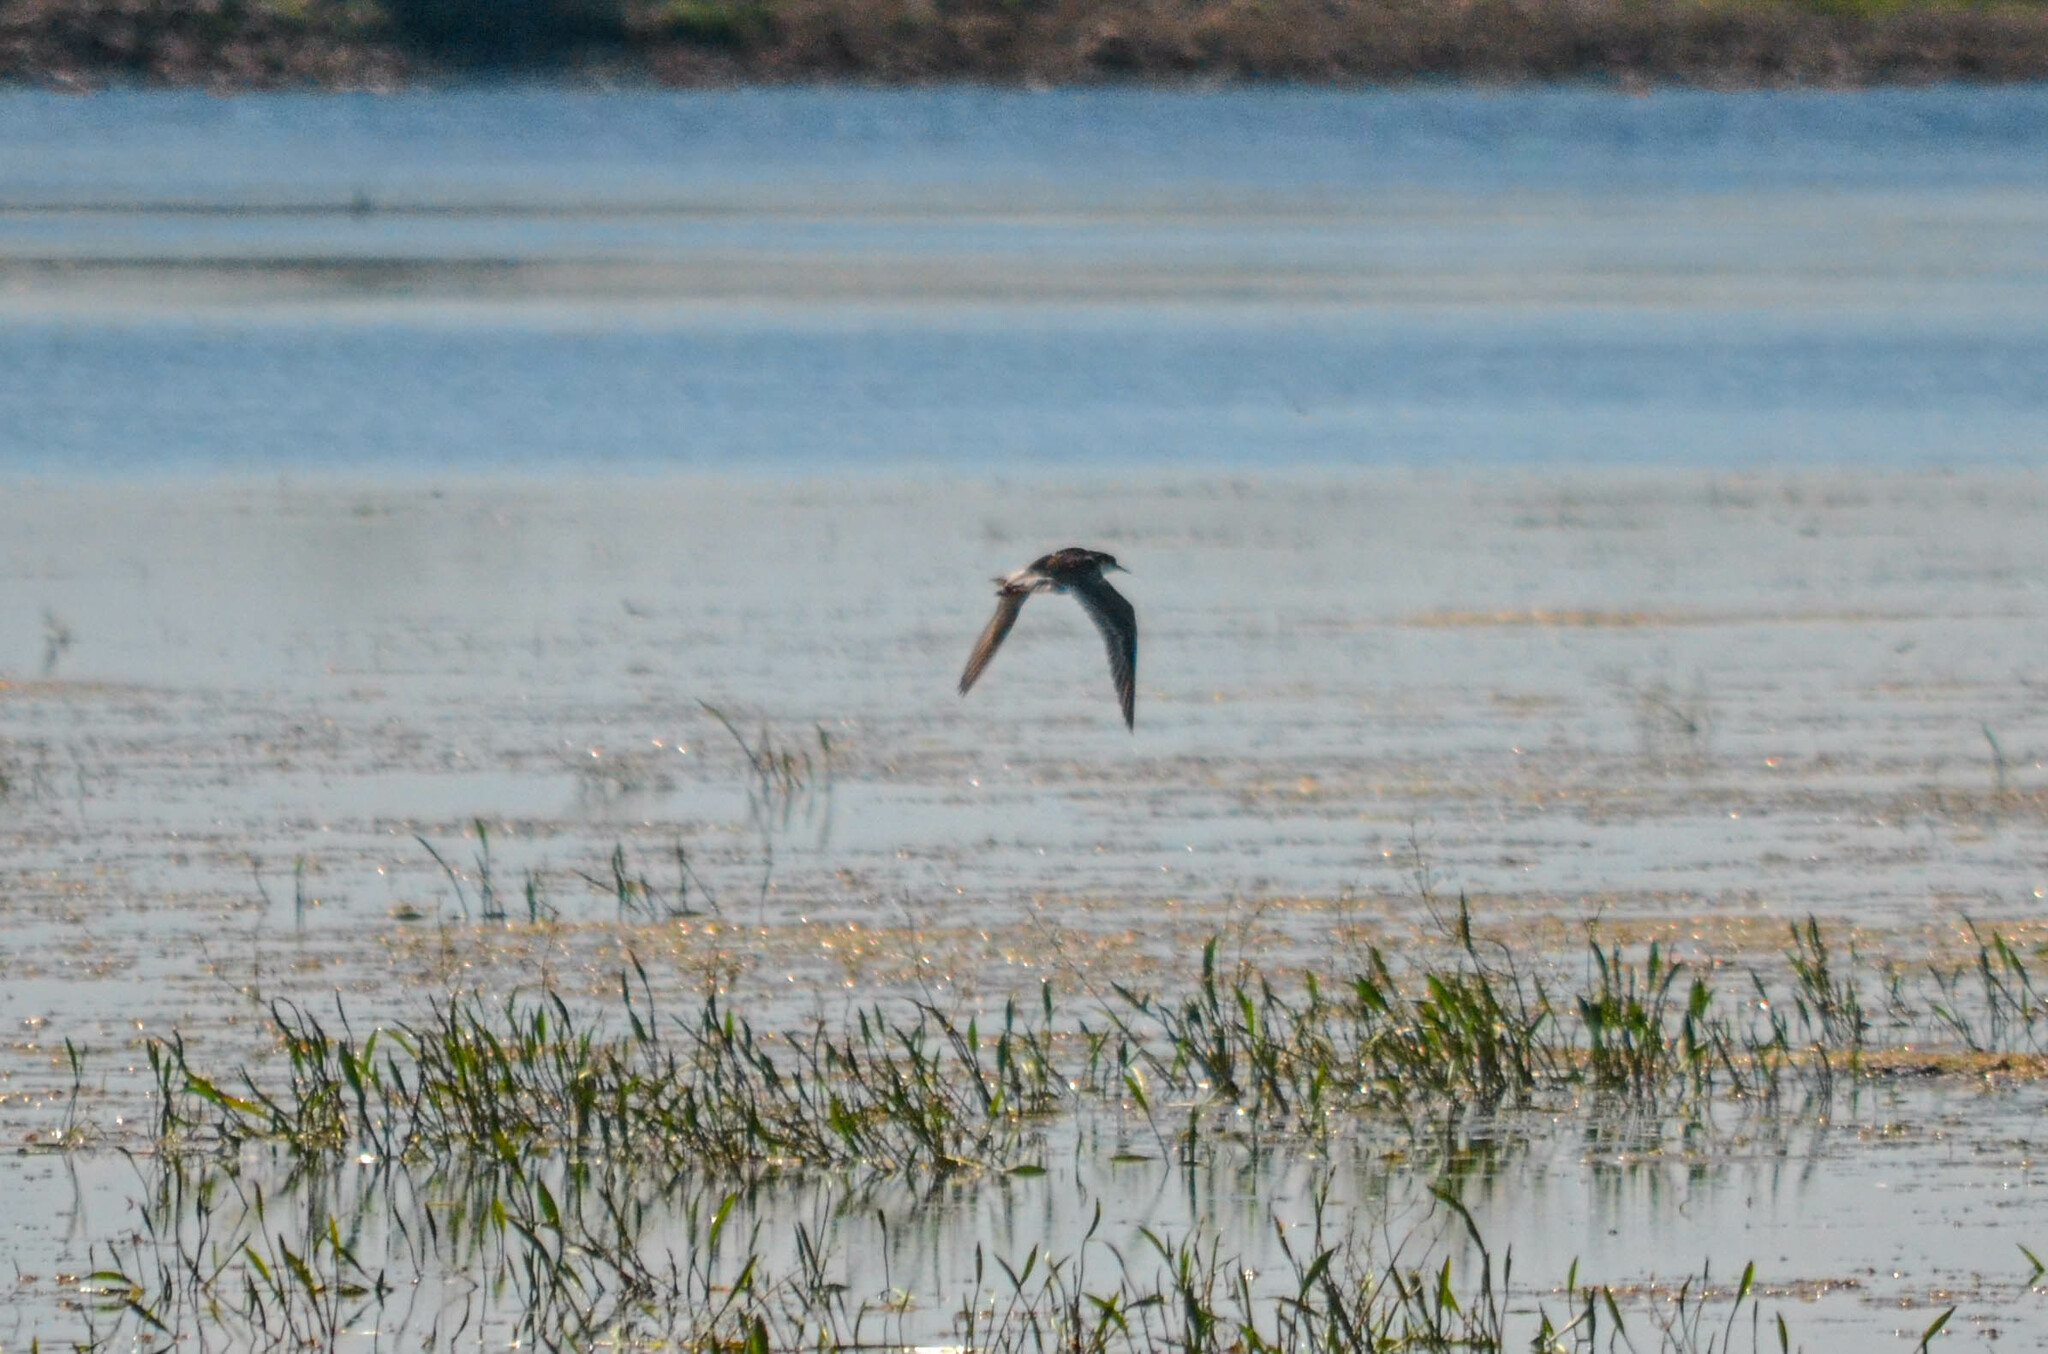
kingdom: Animalia
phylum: Chordata
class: Aves
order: Charadriiformes
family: Scolopacidae
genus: Calidris
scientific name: Calidris pugnax
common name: Ruff
